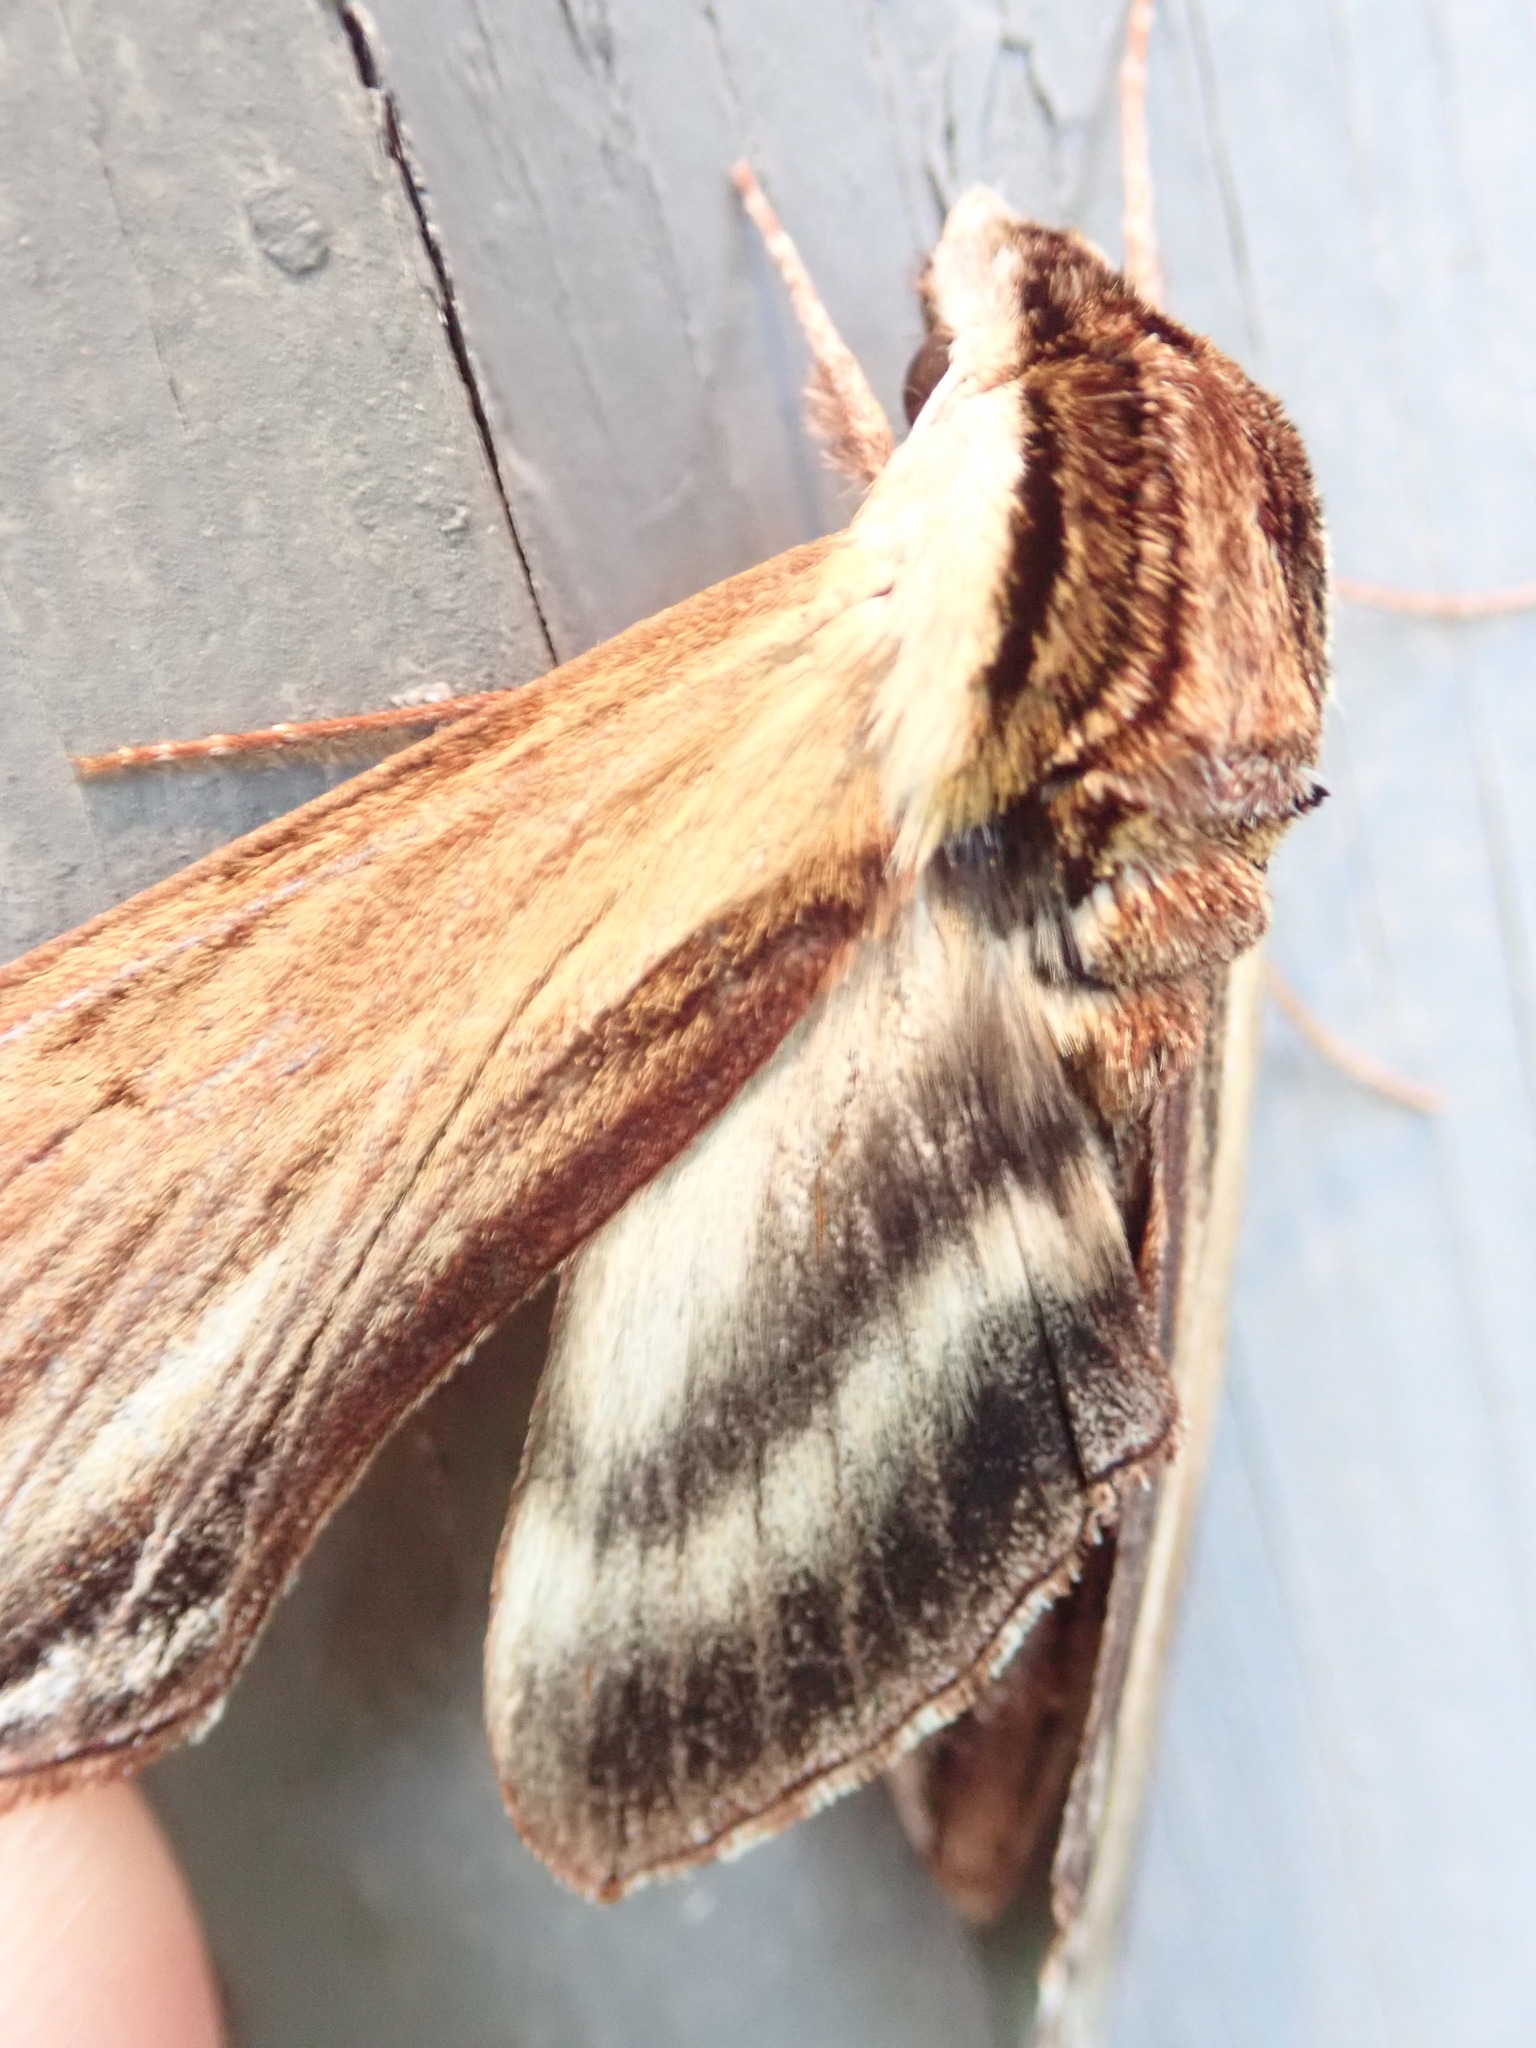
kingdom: Animalia
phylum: Arthropoda
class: Insecta
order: Lepidoptera
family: Sphingidae
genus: Sphinx
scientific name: Sphinx kalmiae
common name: Laurel sphinx
